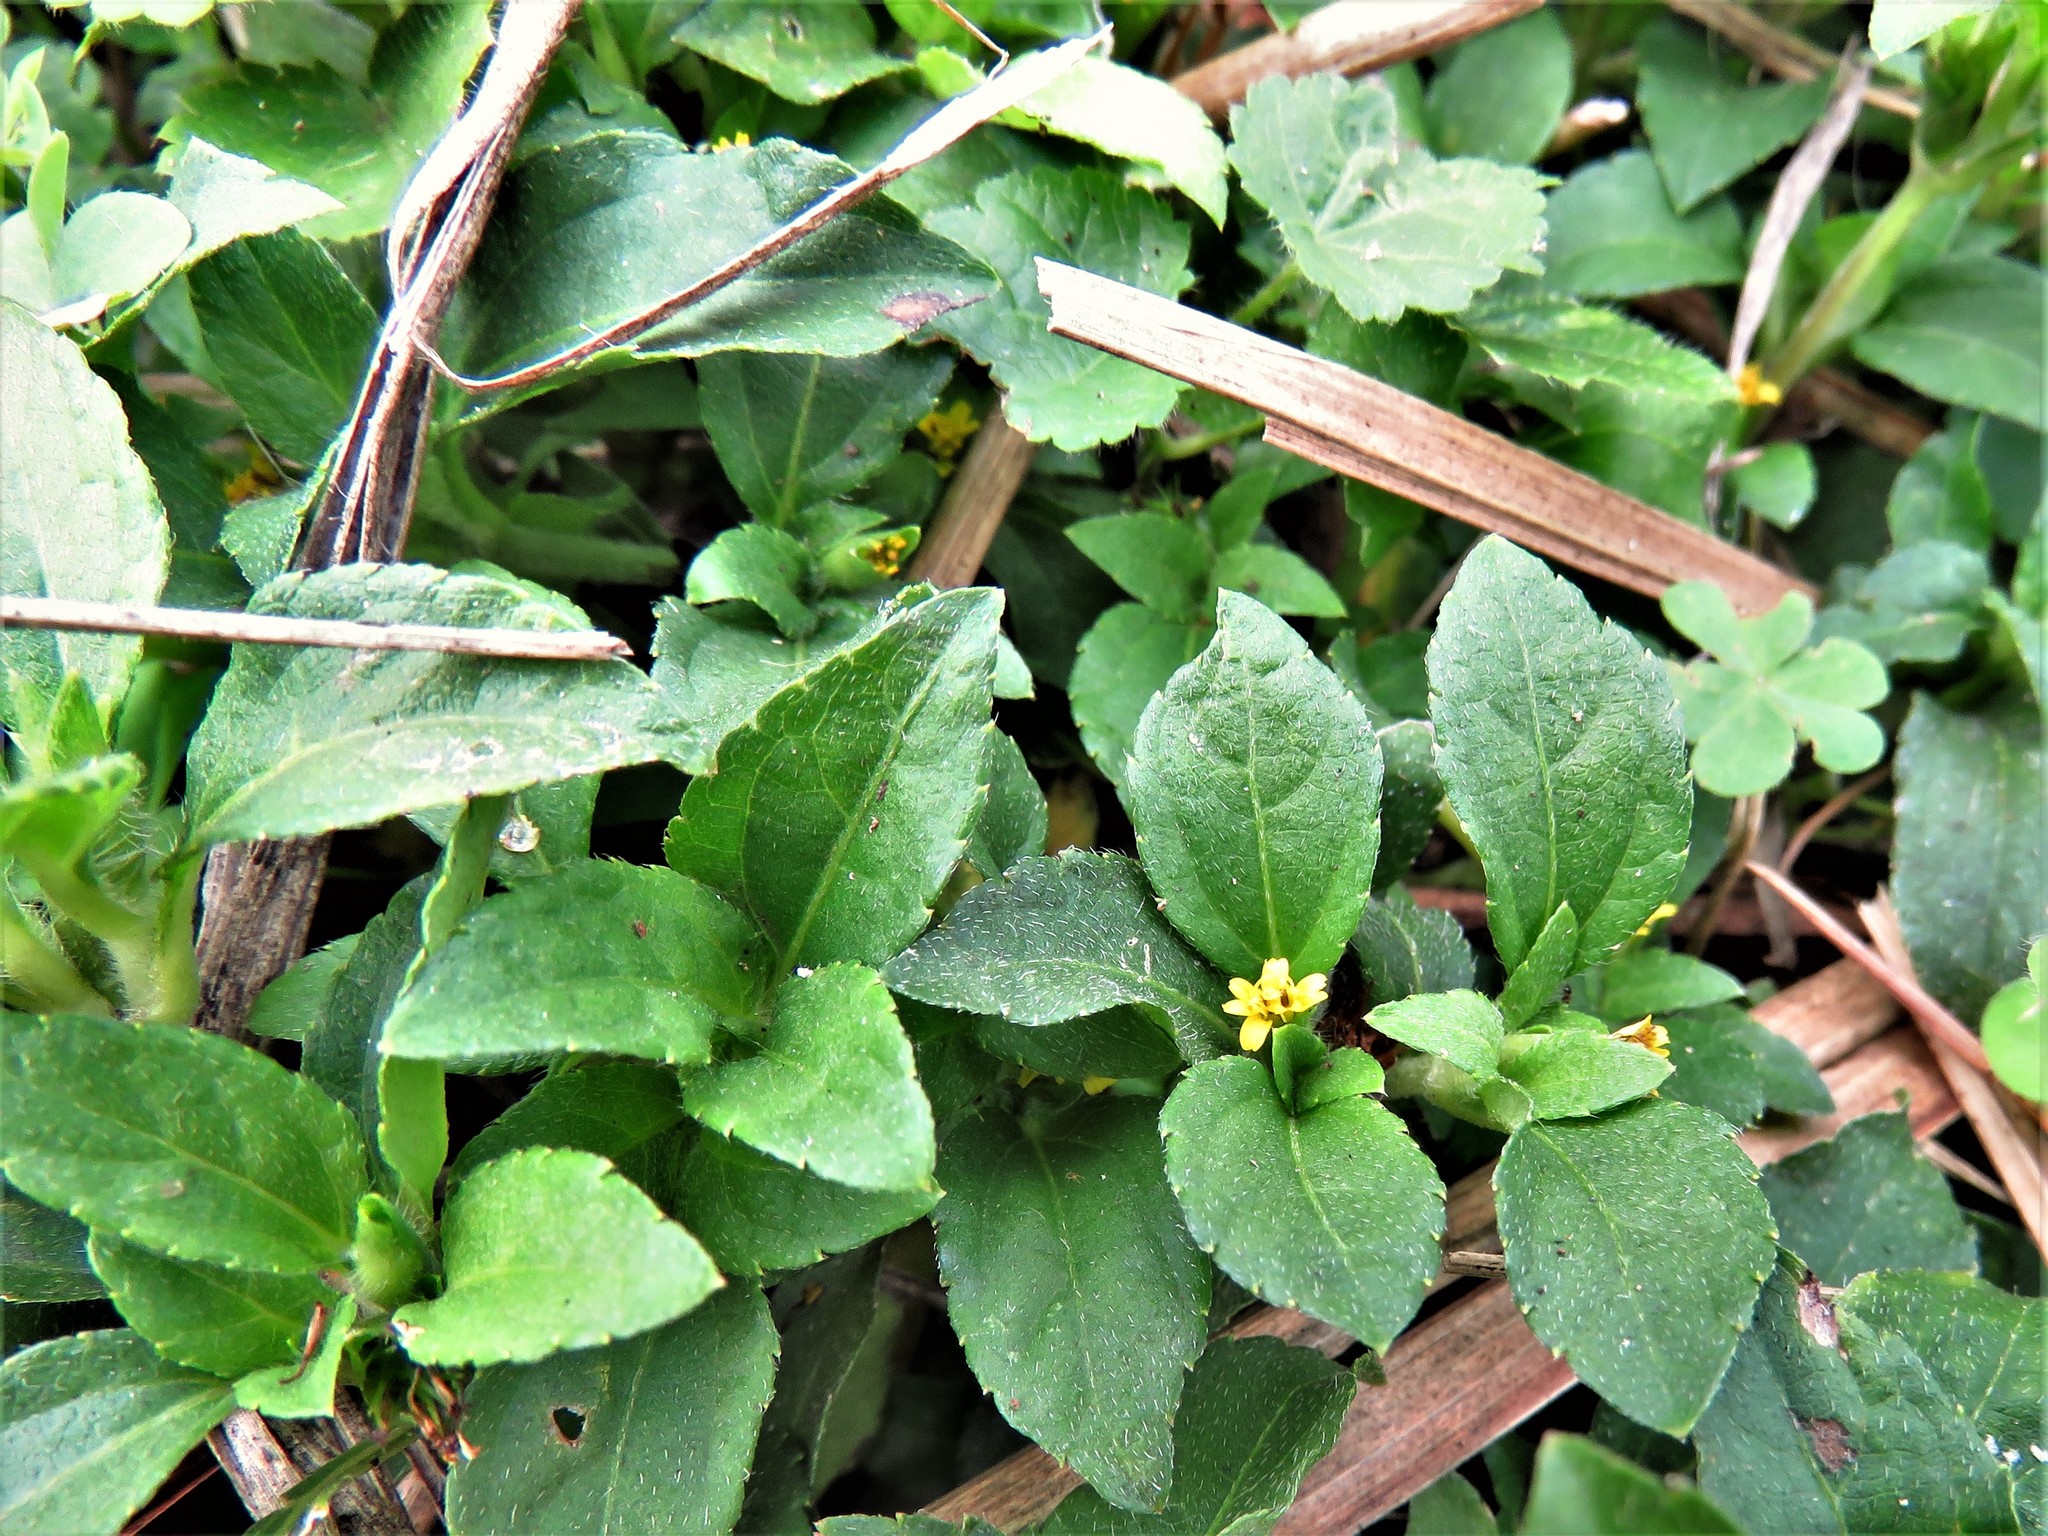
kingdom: Plantae
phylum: Tracheophyta
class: Magnoliopsida
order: Asterales
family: Asteraceae
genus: Calyptocarpus
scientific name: Calyptocarpus vialis
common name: Straggler daisy
